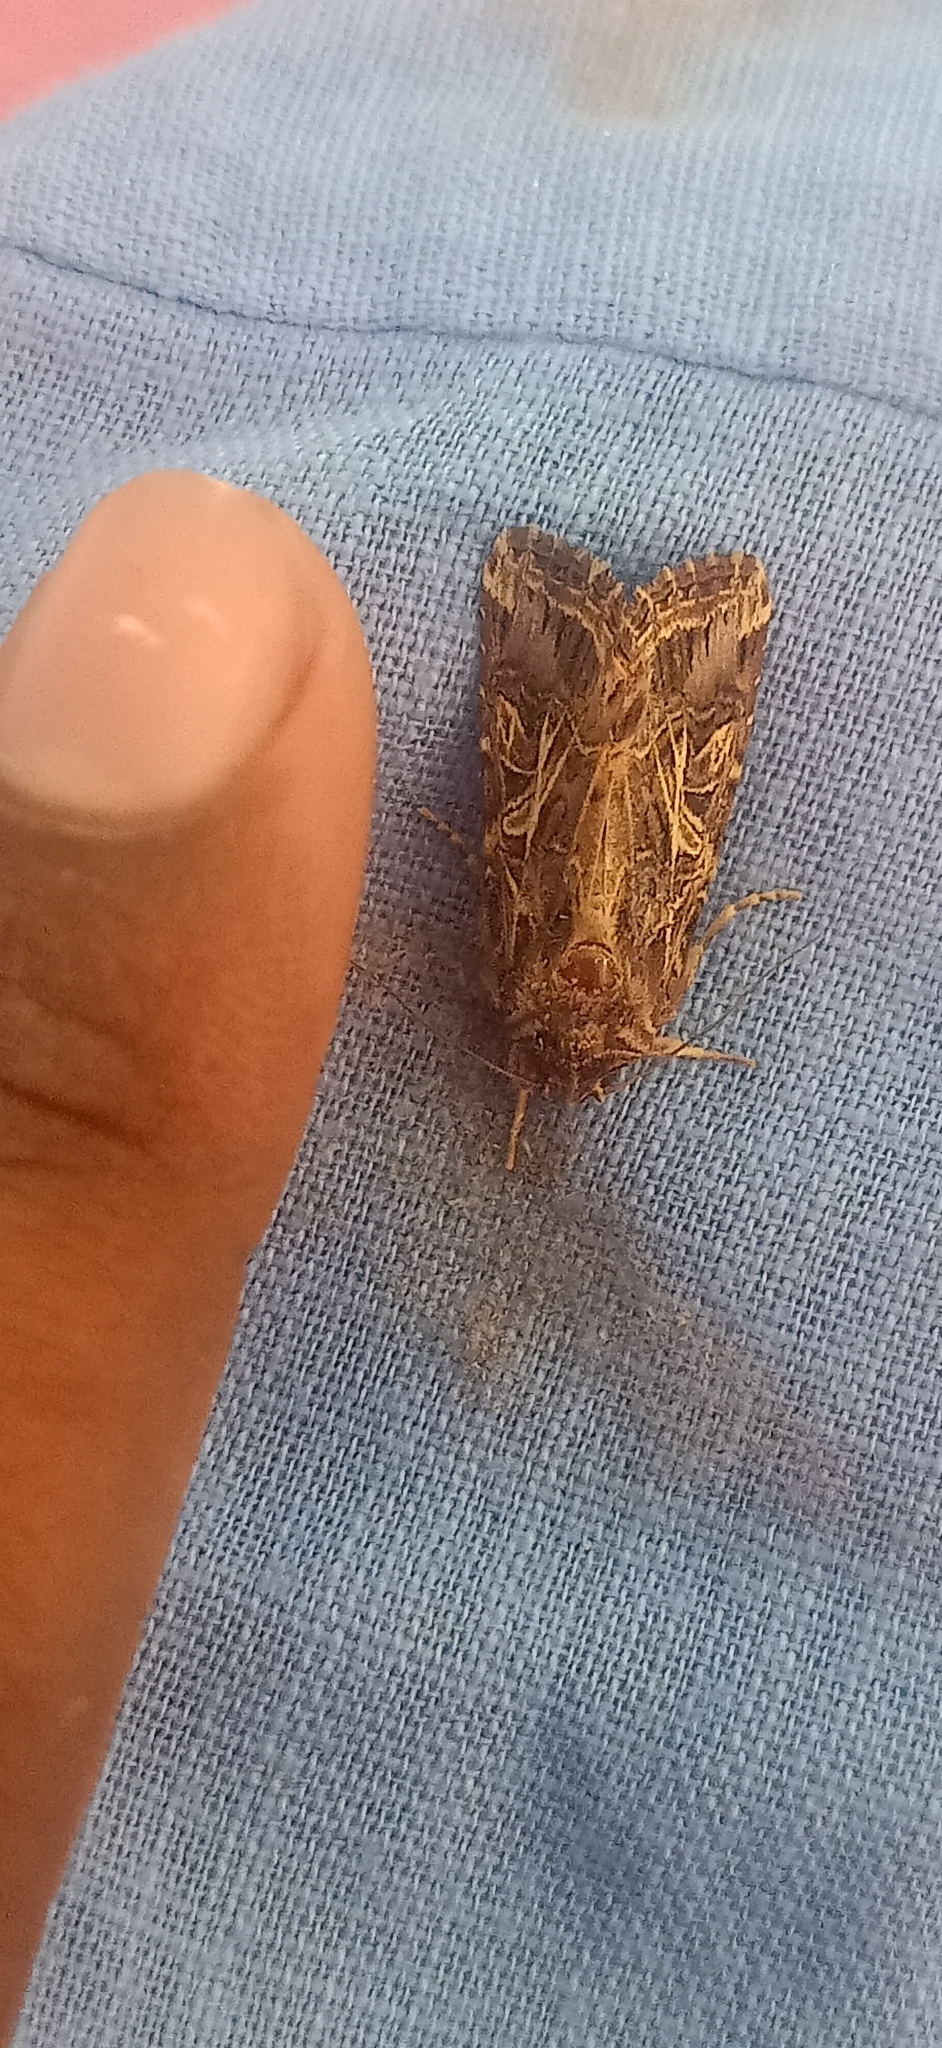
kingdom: Animalia
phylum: Arthropoda
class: Insecta
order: Lepidoptera
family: Noctuidae
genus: Spodoptera
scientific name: Spodoptera litura
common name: Asian cotton leafworm
